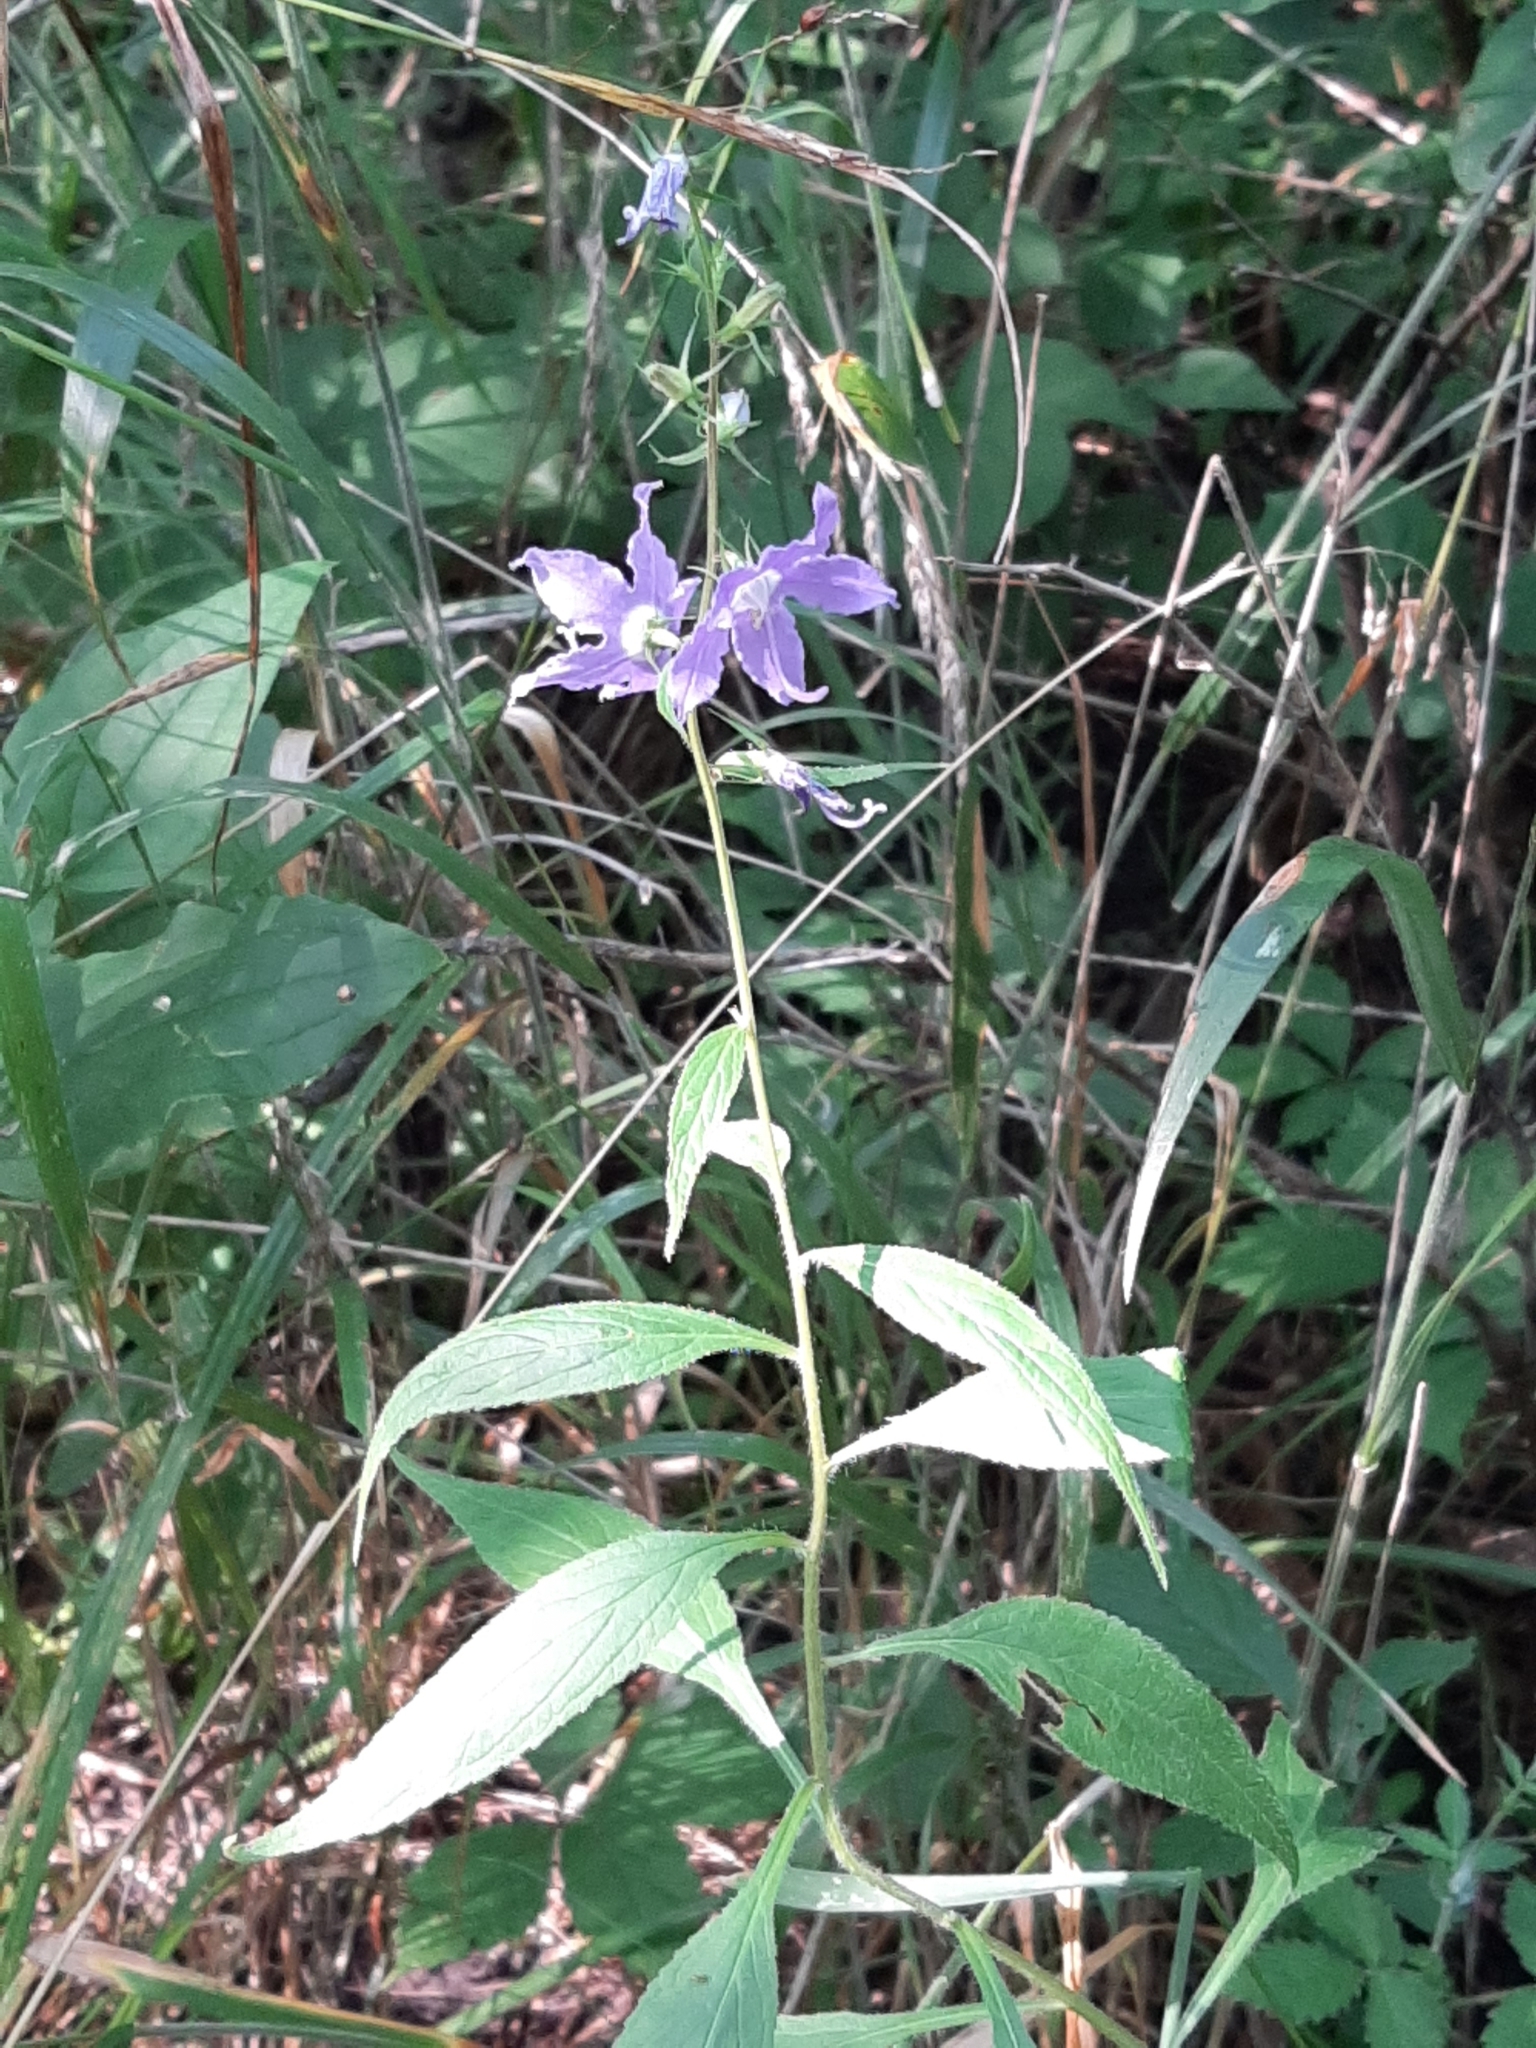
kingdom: Plantae
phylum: Tracheophyta
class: Magnoliopsida
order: Asterales
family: Campanulaceae
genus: Campanulastrum
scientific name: Campanulastrum americanum
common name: American bellflower
